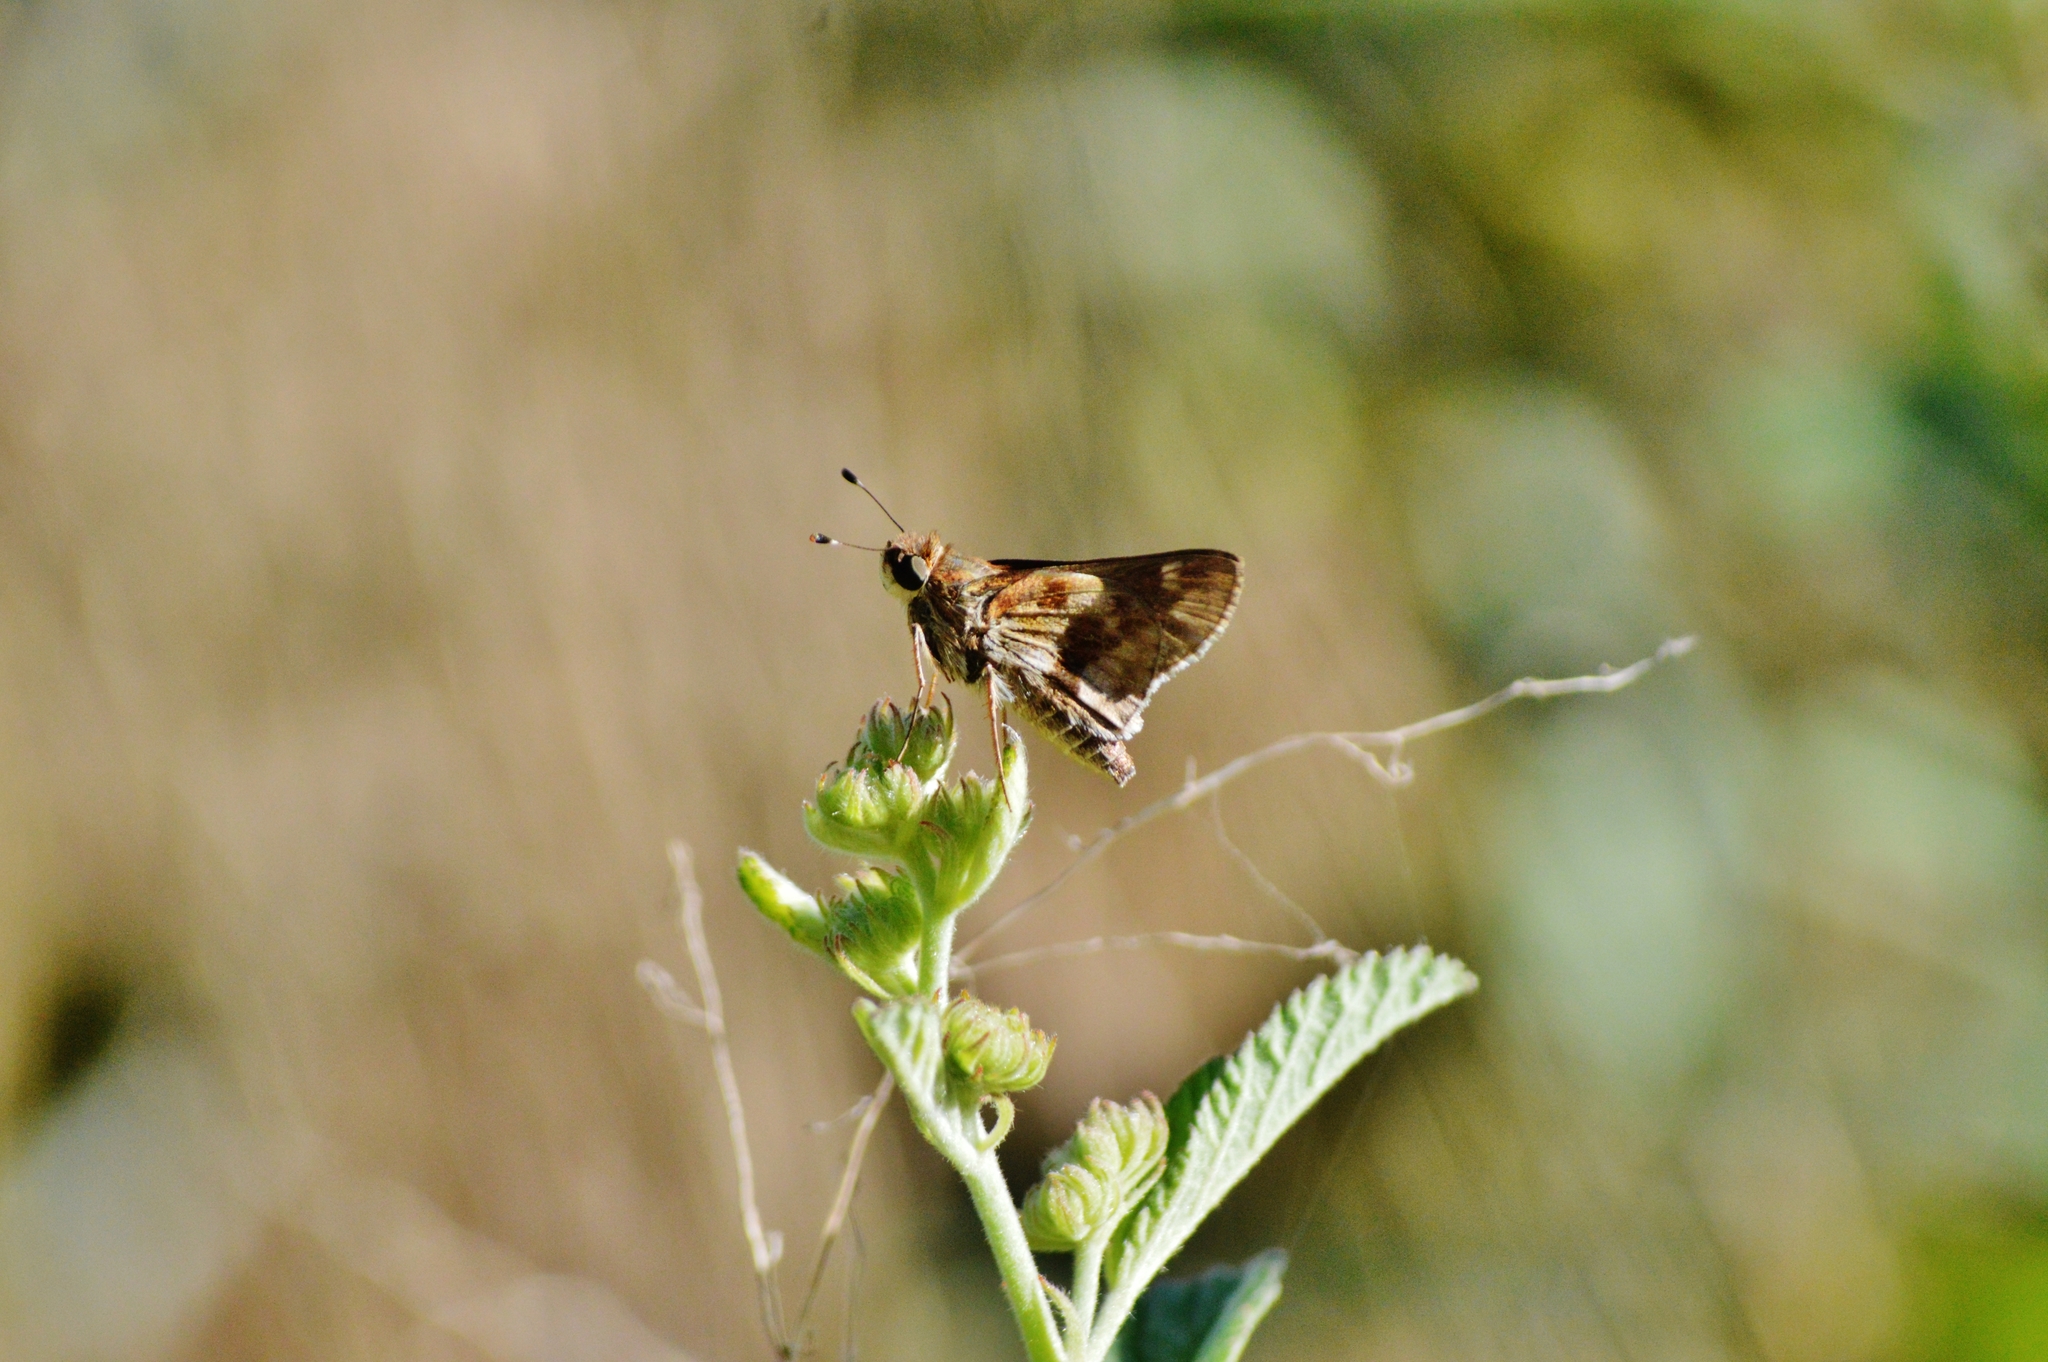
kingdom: Animalia
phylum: Arthropoda
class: Insecta
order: Lepidoptera
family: Hesperiidae
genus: Pompeius
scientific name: Pompeius pompeius
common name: Pompeius skipper
